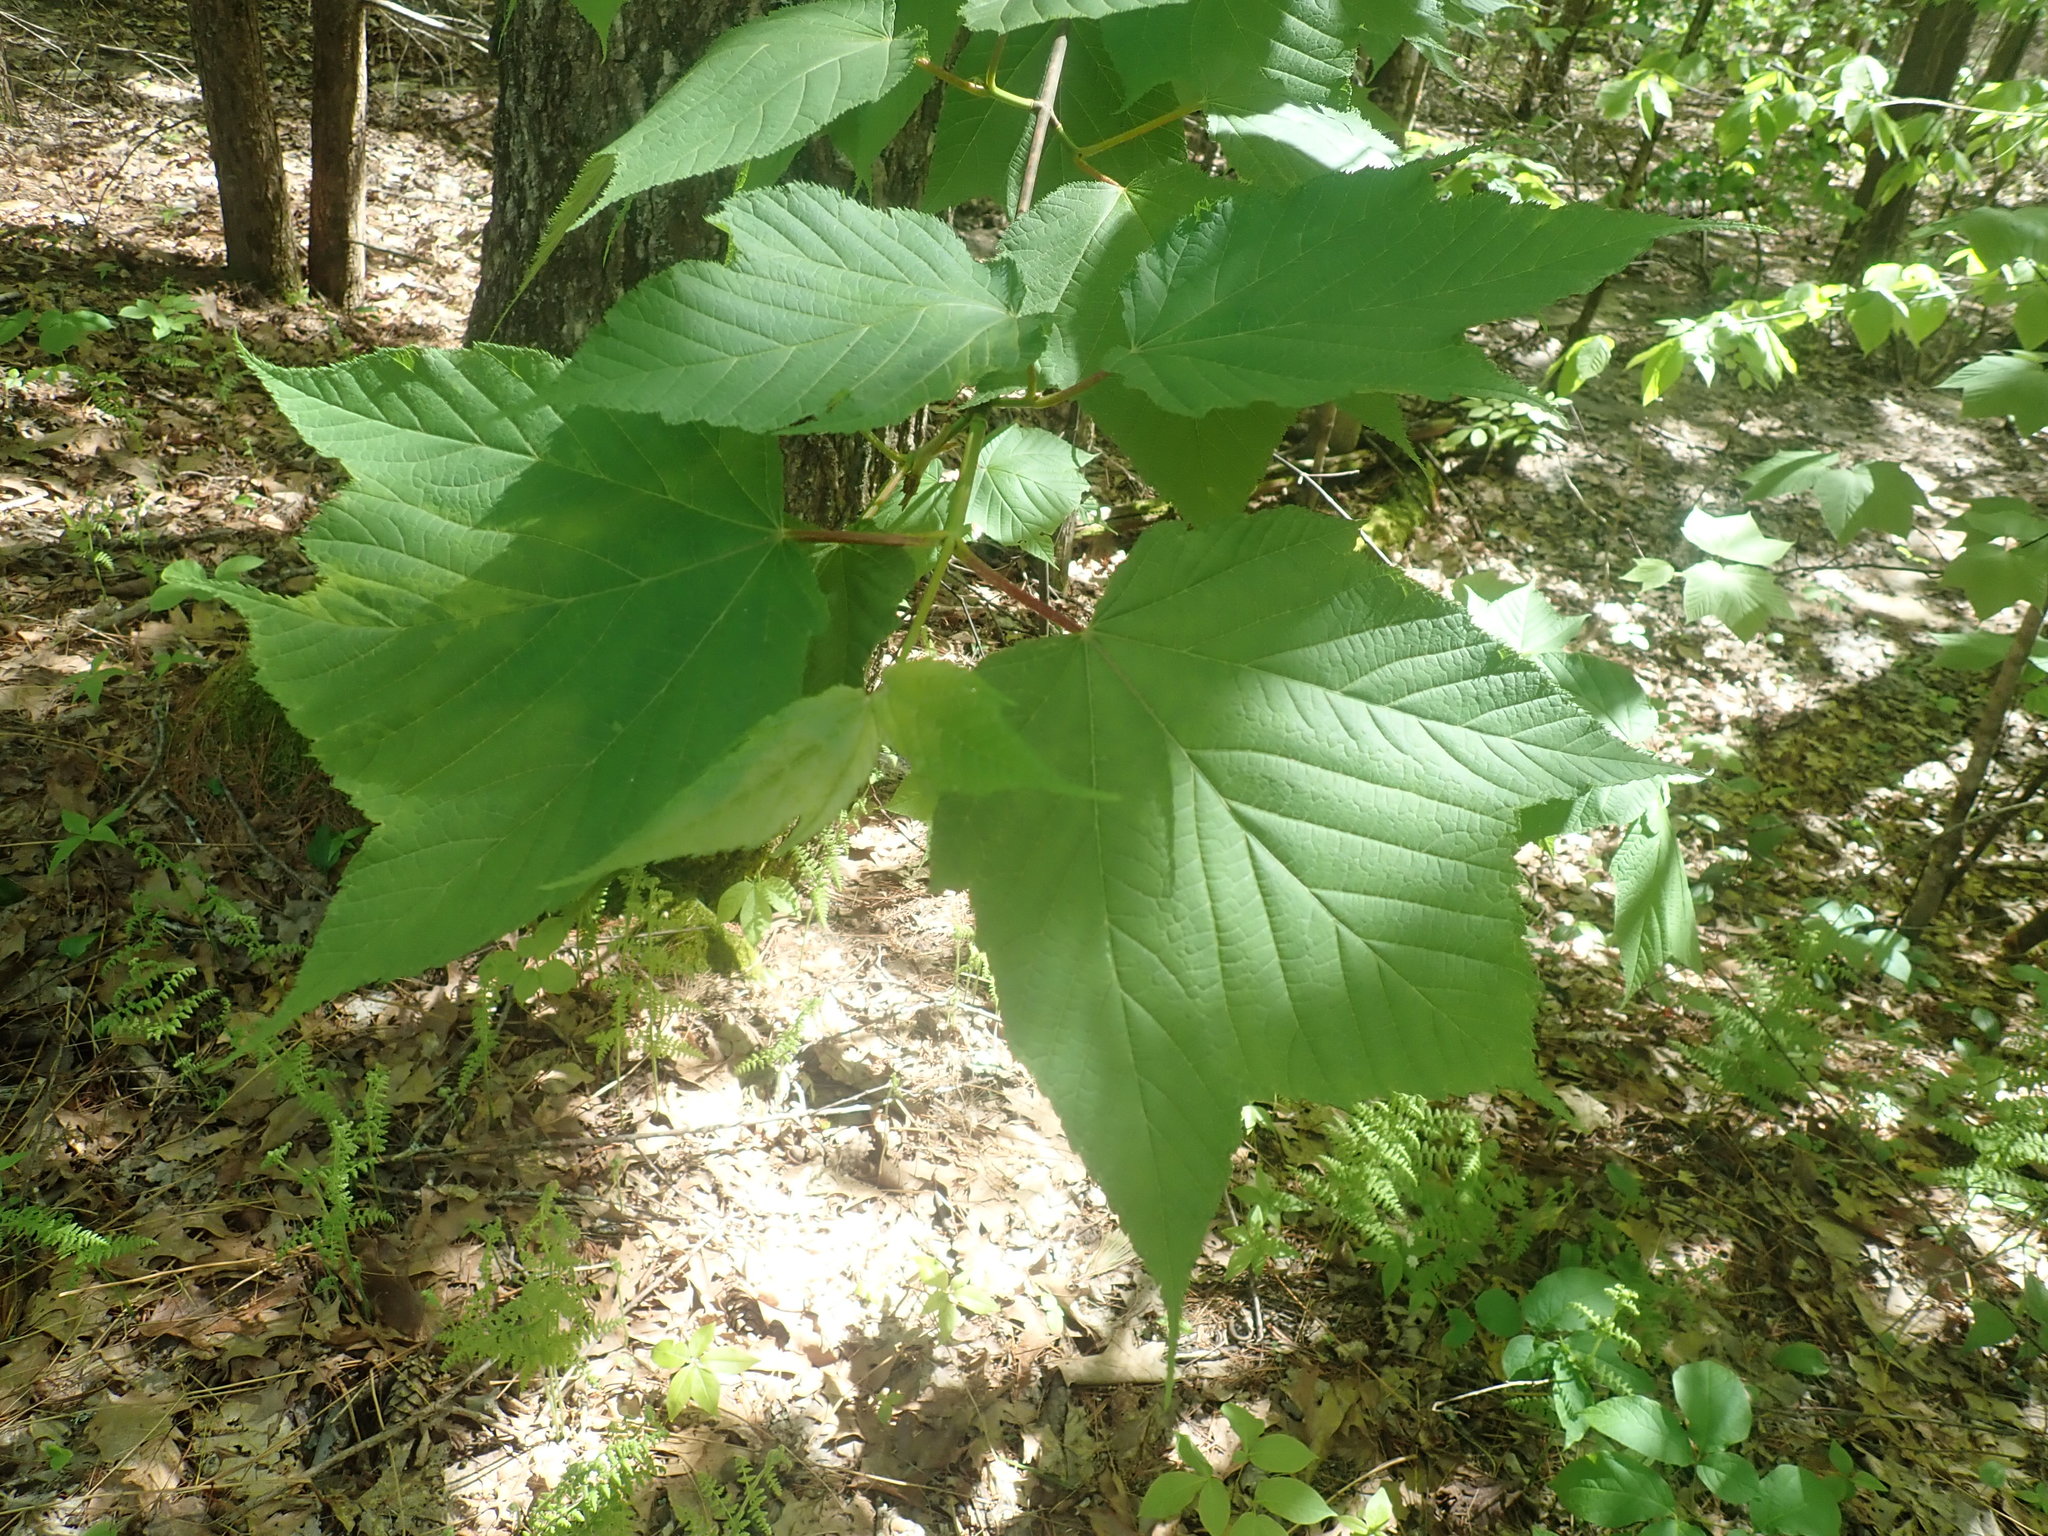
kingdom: Plantae
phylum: Tracheophyta
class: Magnoliopsida
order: Sapindales
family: Sapindaceae
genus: Acer
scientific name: Acer pensylvanicum
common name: Moosewood
